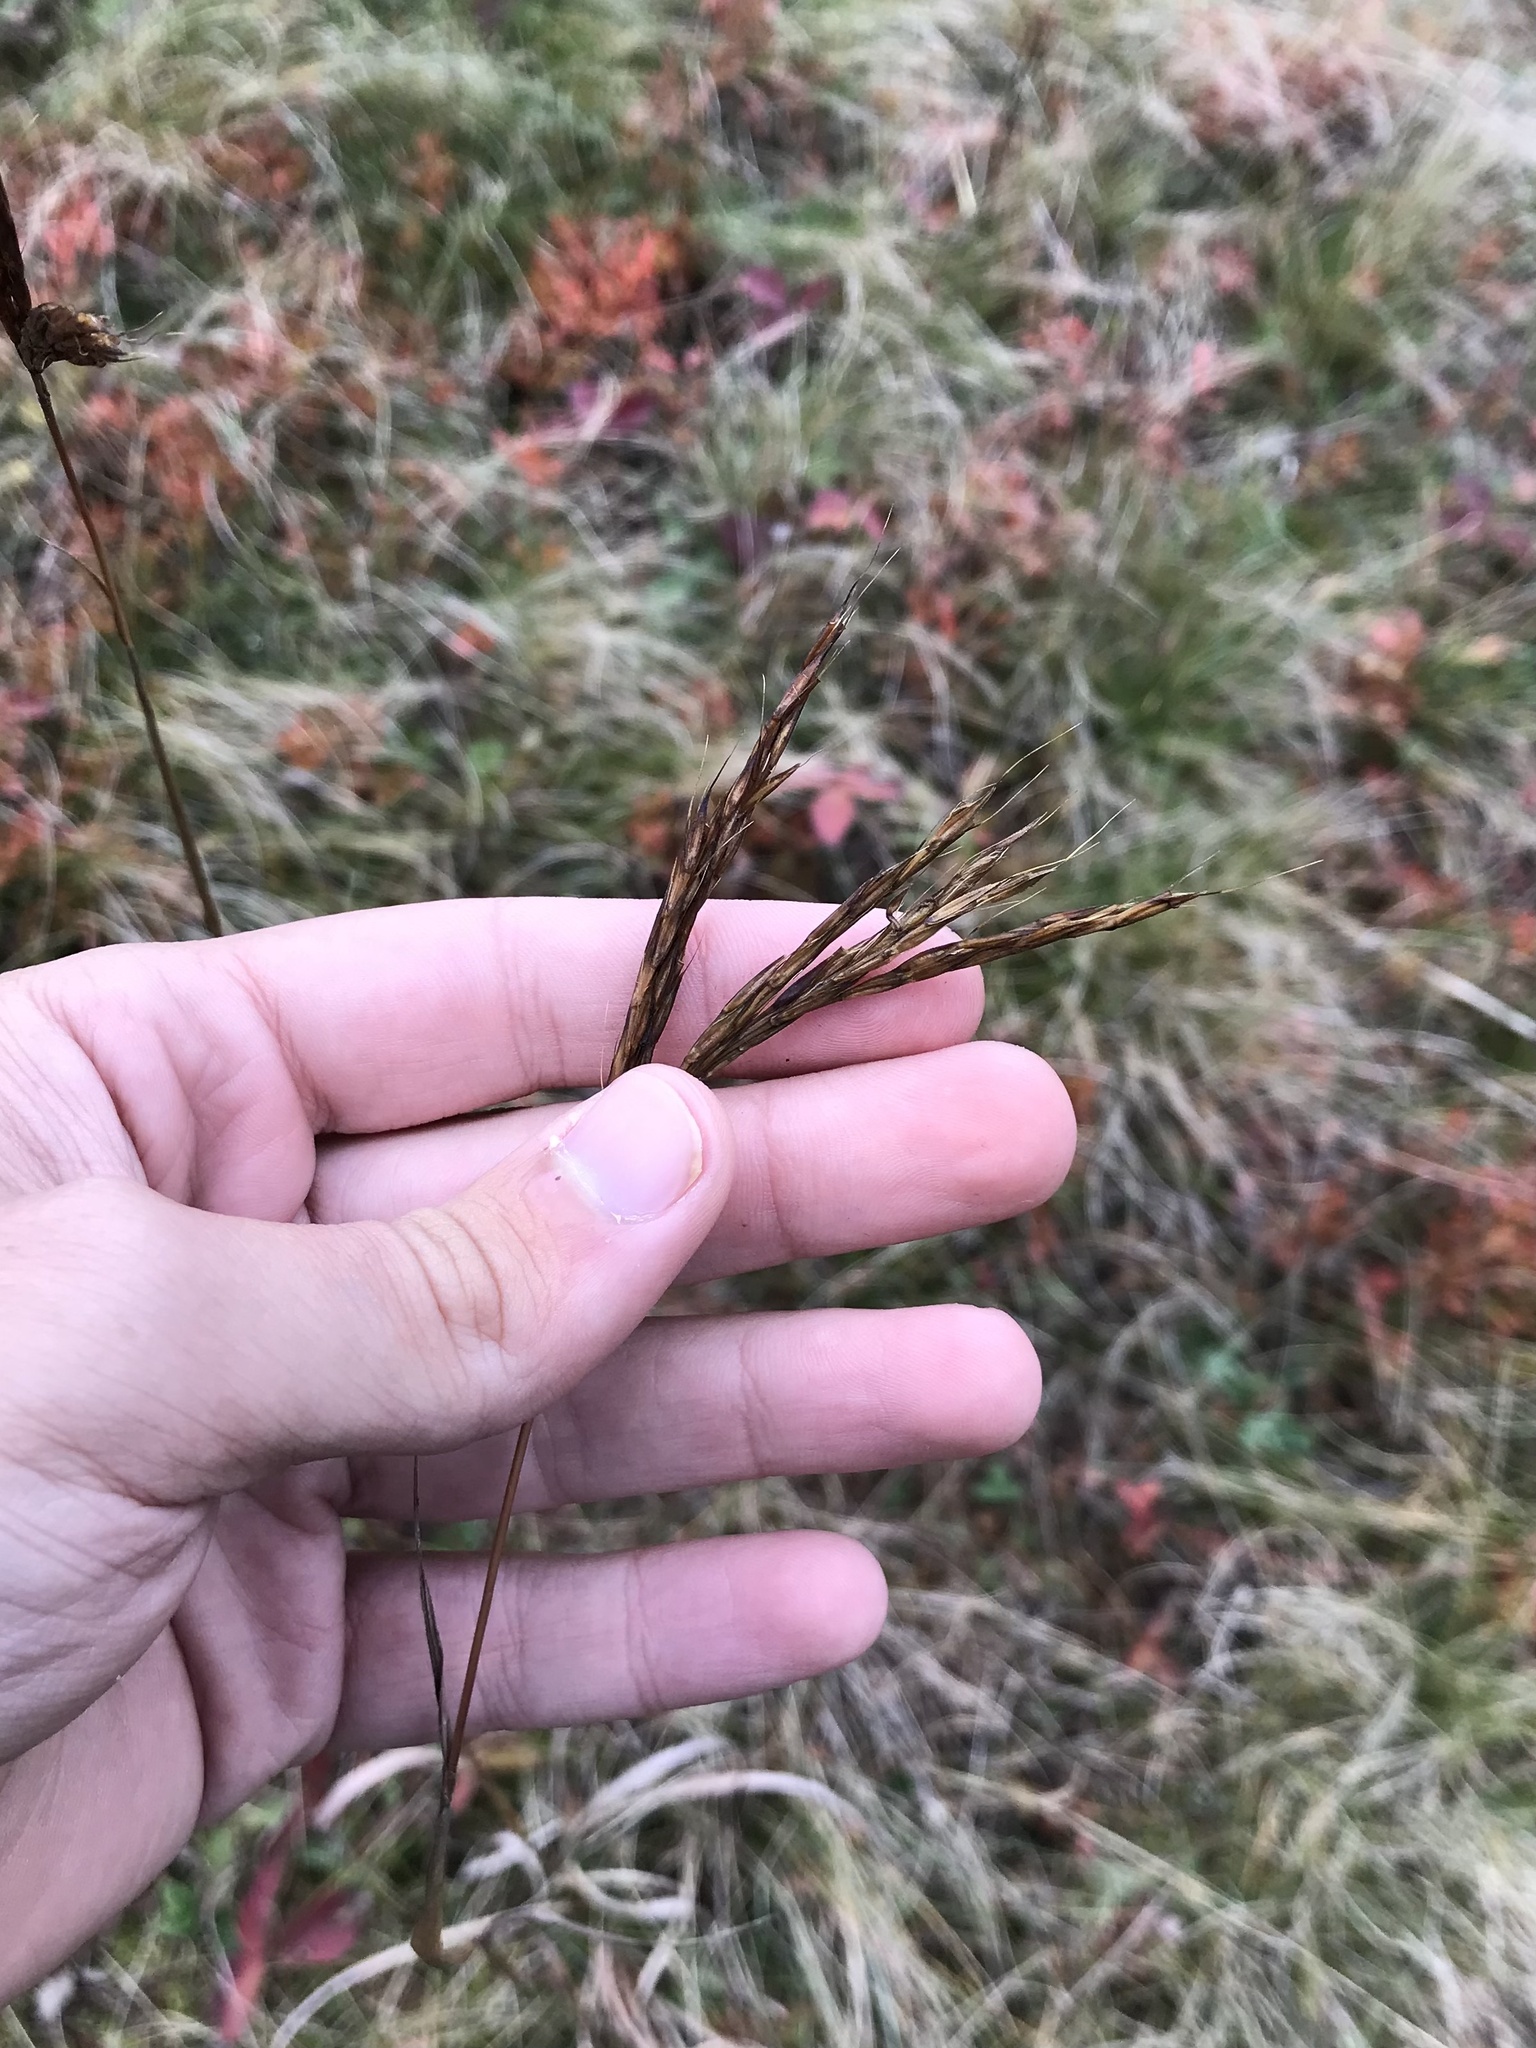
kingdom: Plantae
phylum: Tracheophyta
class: Liliopsida
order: Poales
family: Poaceae
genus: Andropogon
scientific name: Andropogon gerardi
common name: Big bluestem
